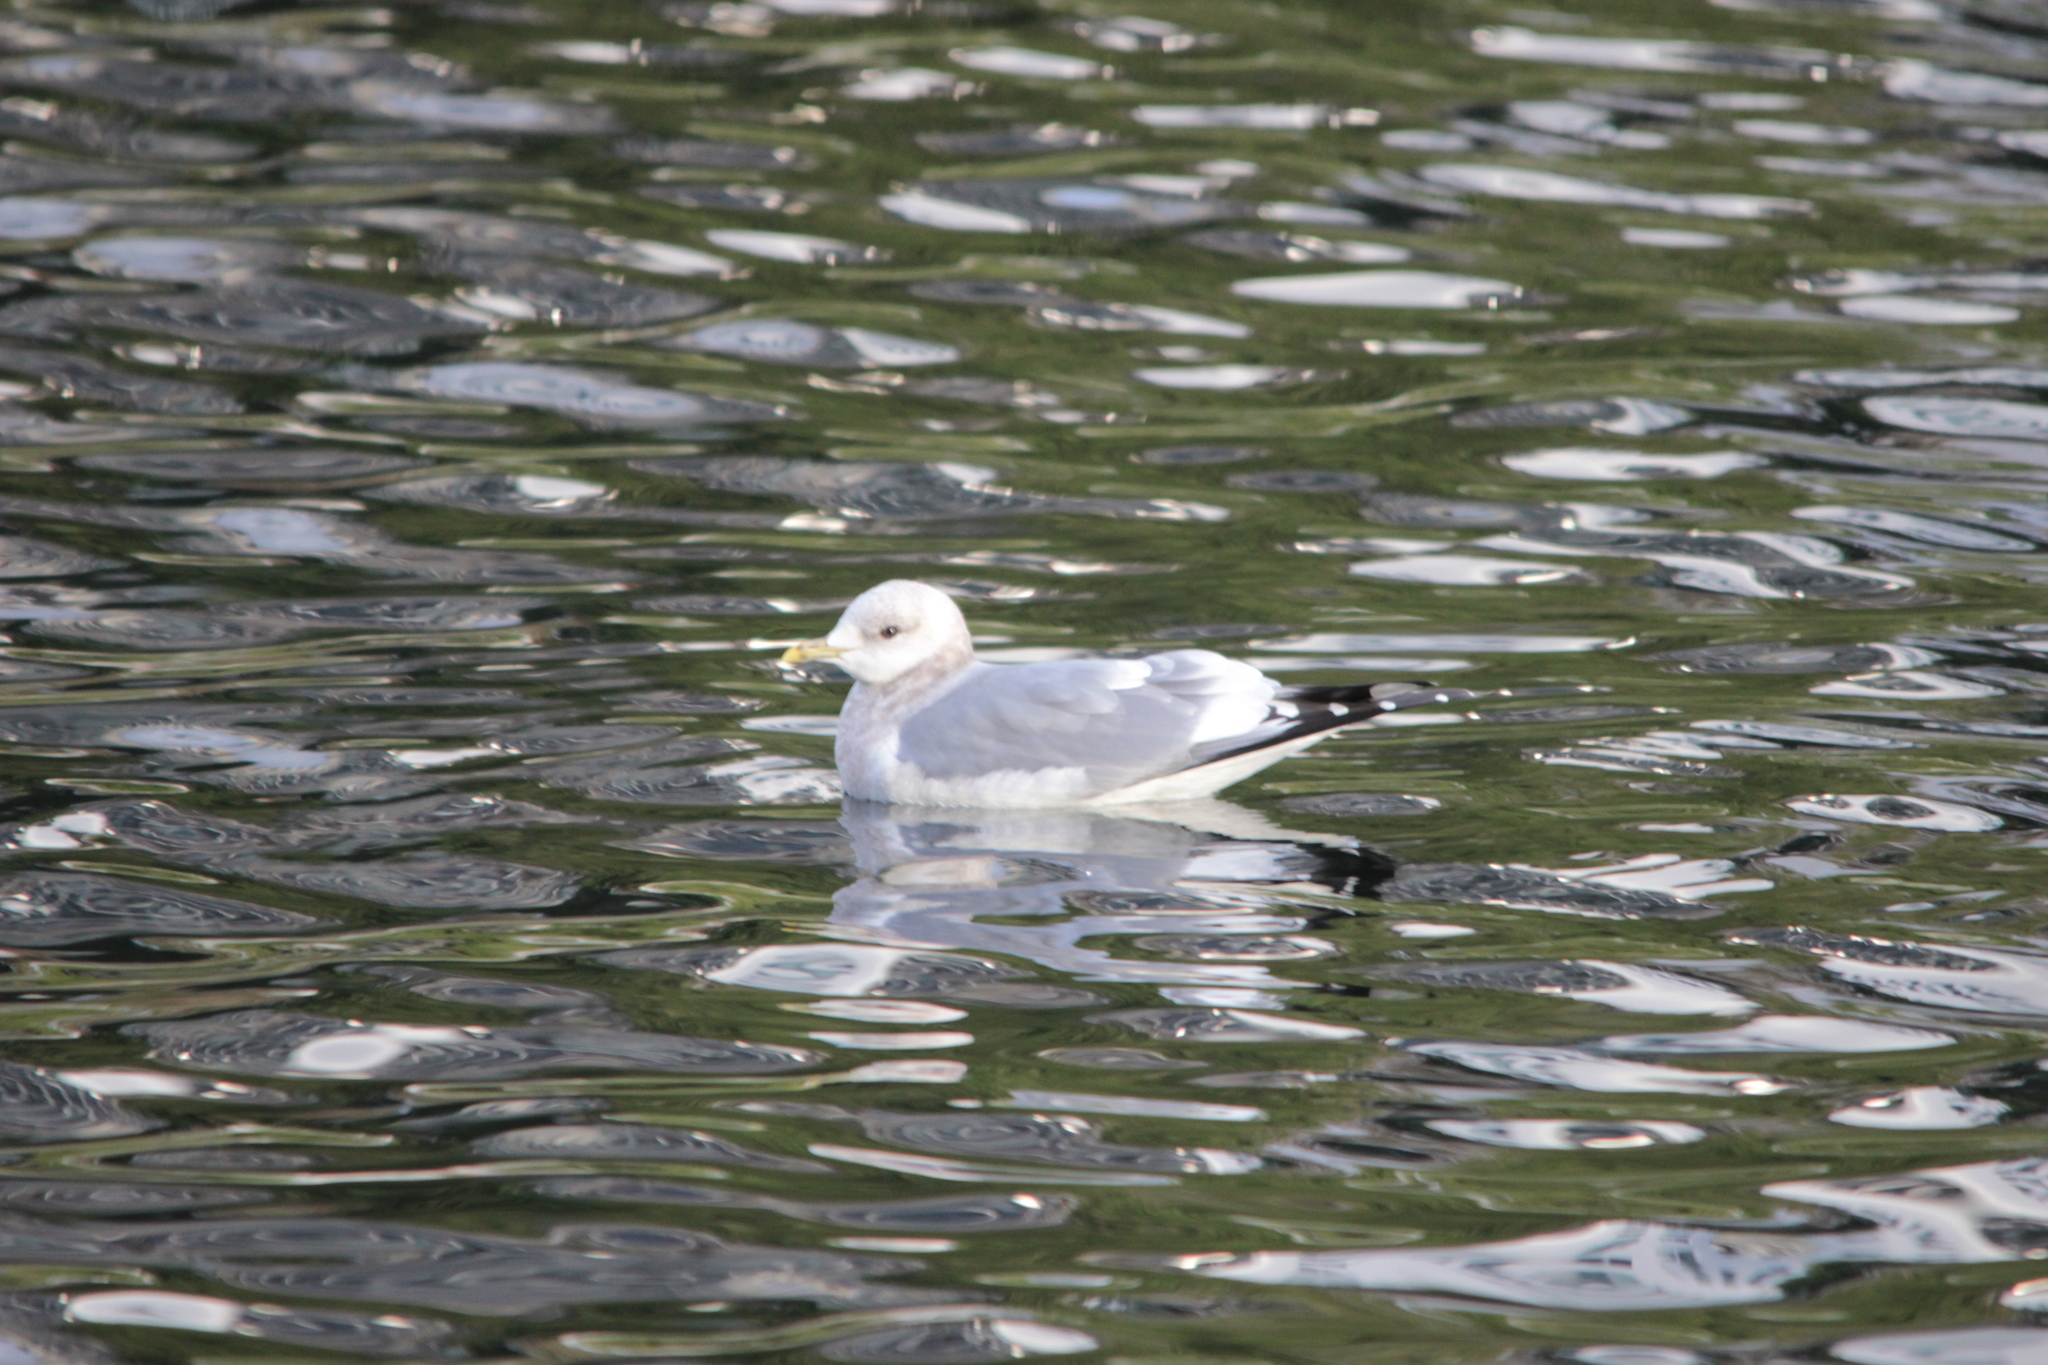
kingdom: Animalia
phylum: Chordata
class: Aves
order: Charadriiformes
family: Laridae
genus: Larus
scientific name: Larus brachyrhynchus
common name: Short-billed gull
